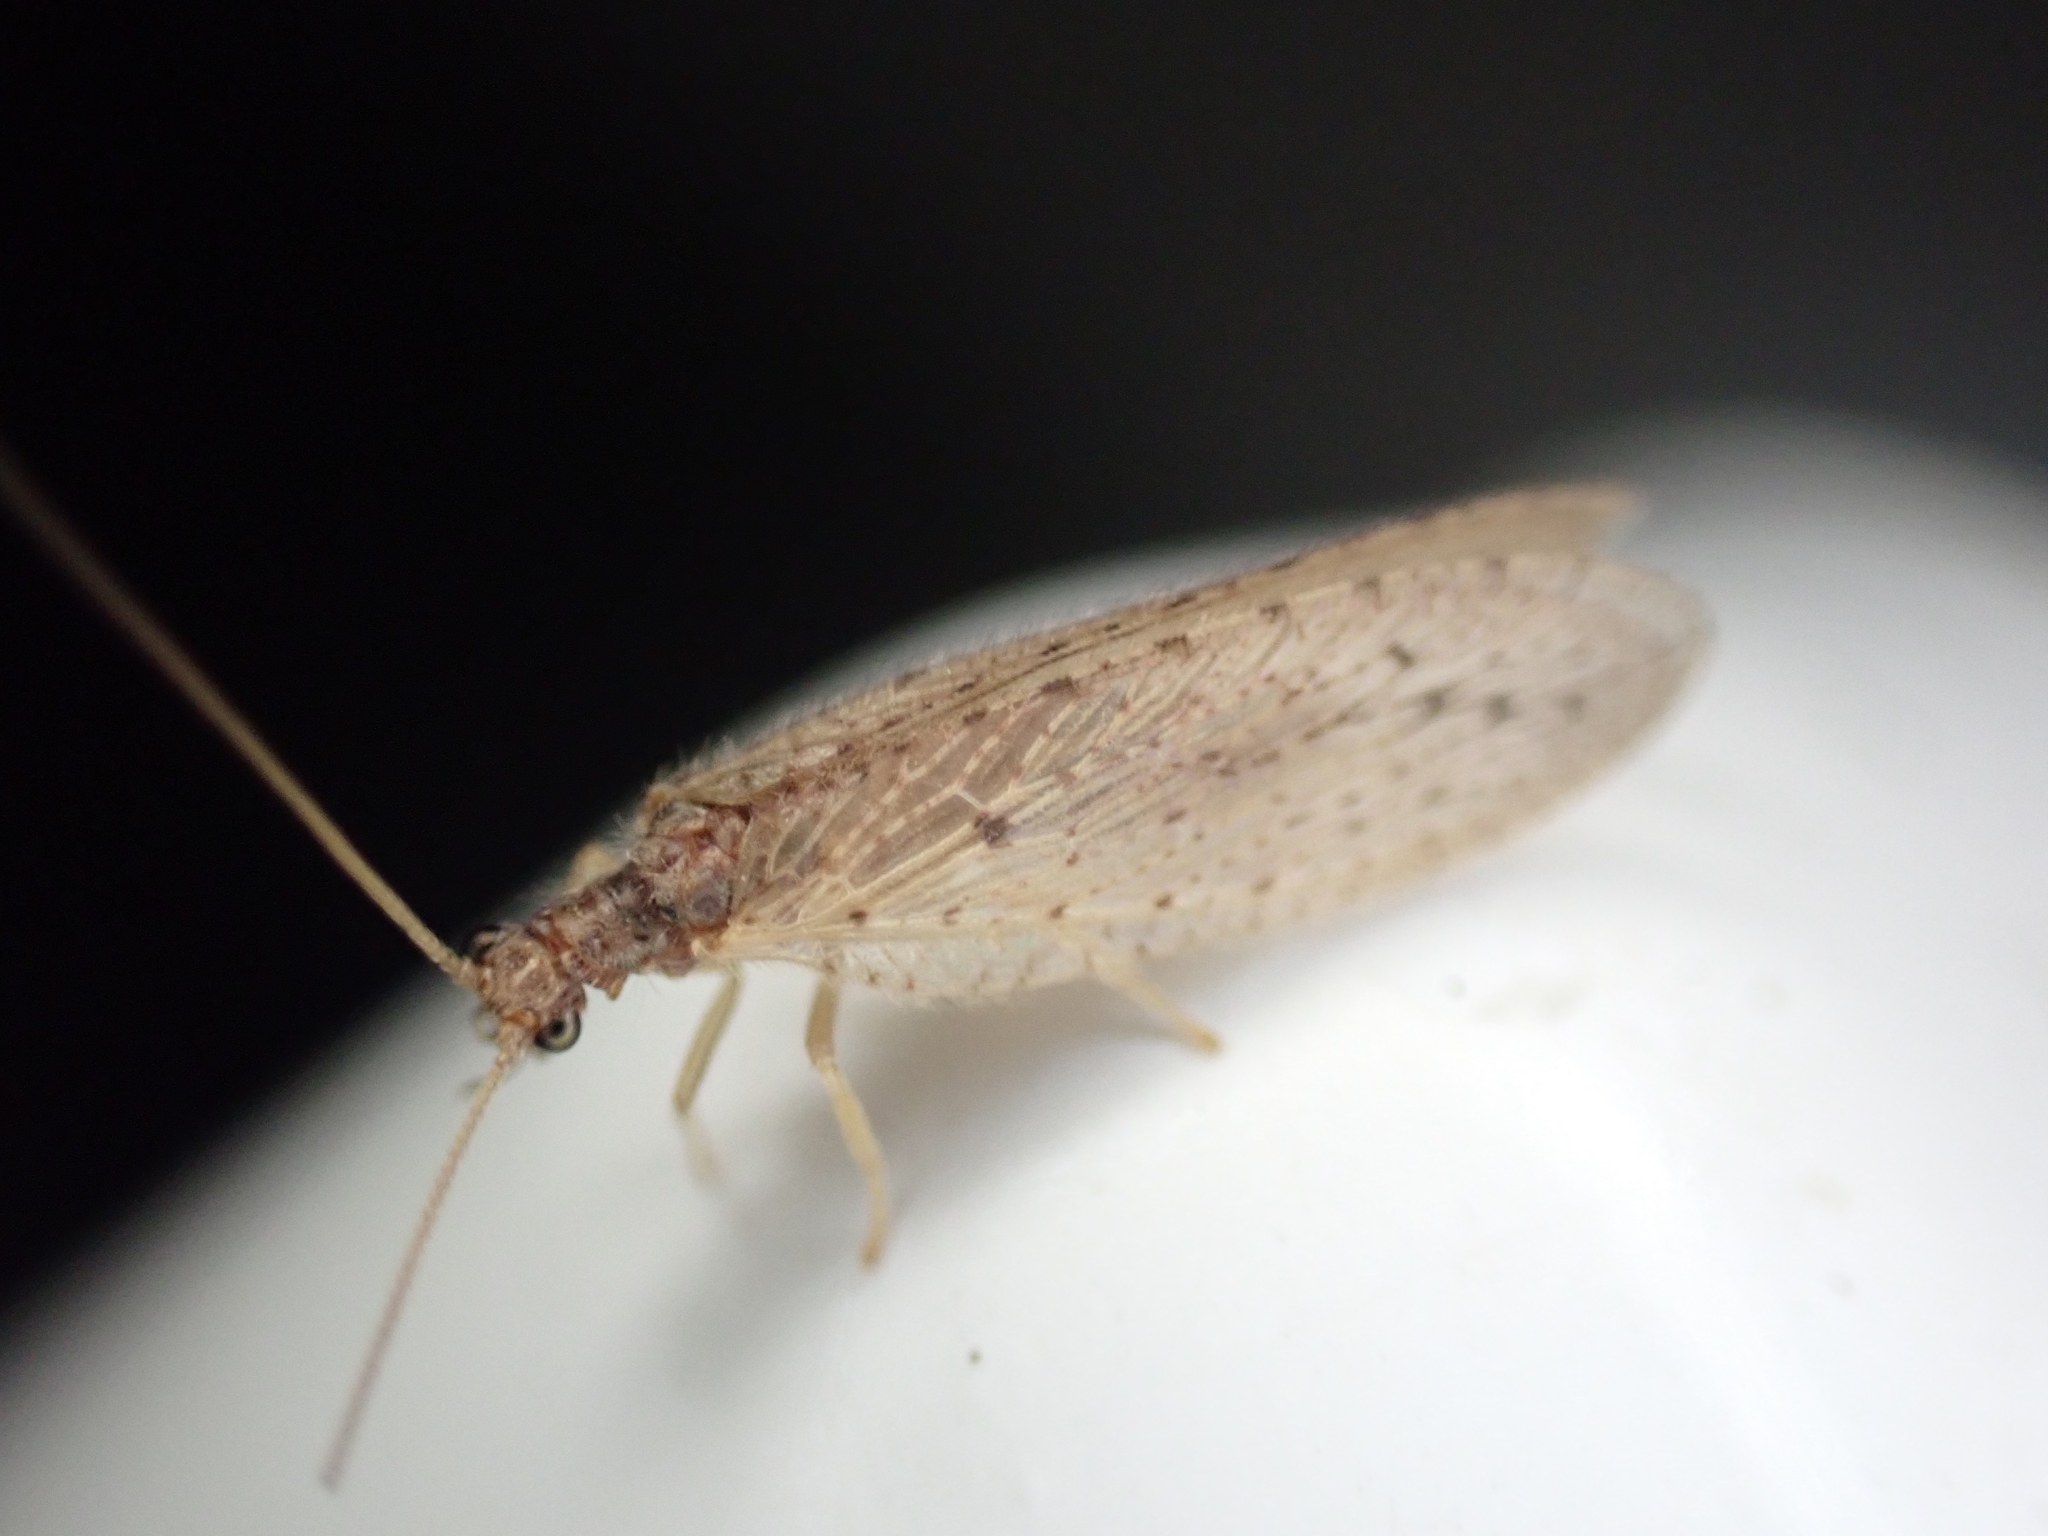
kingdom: Animalia
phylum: Arthropoda
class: Insecta
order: Neuroptera
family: Hemerobiidae
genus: Micromus
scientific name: Micromus subanticus
